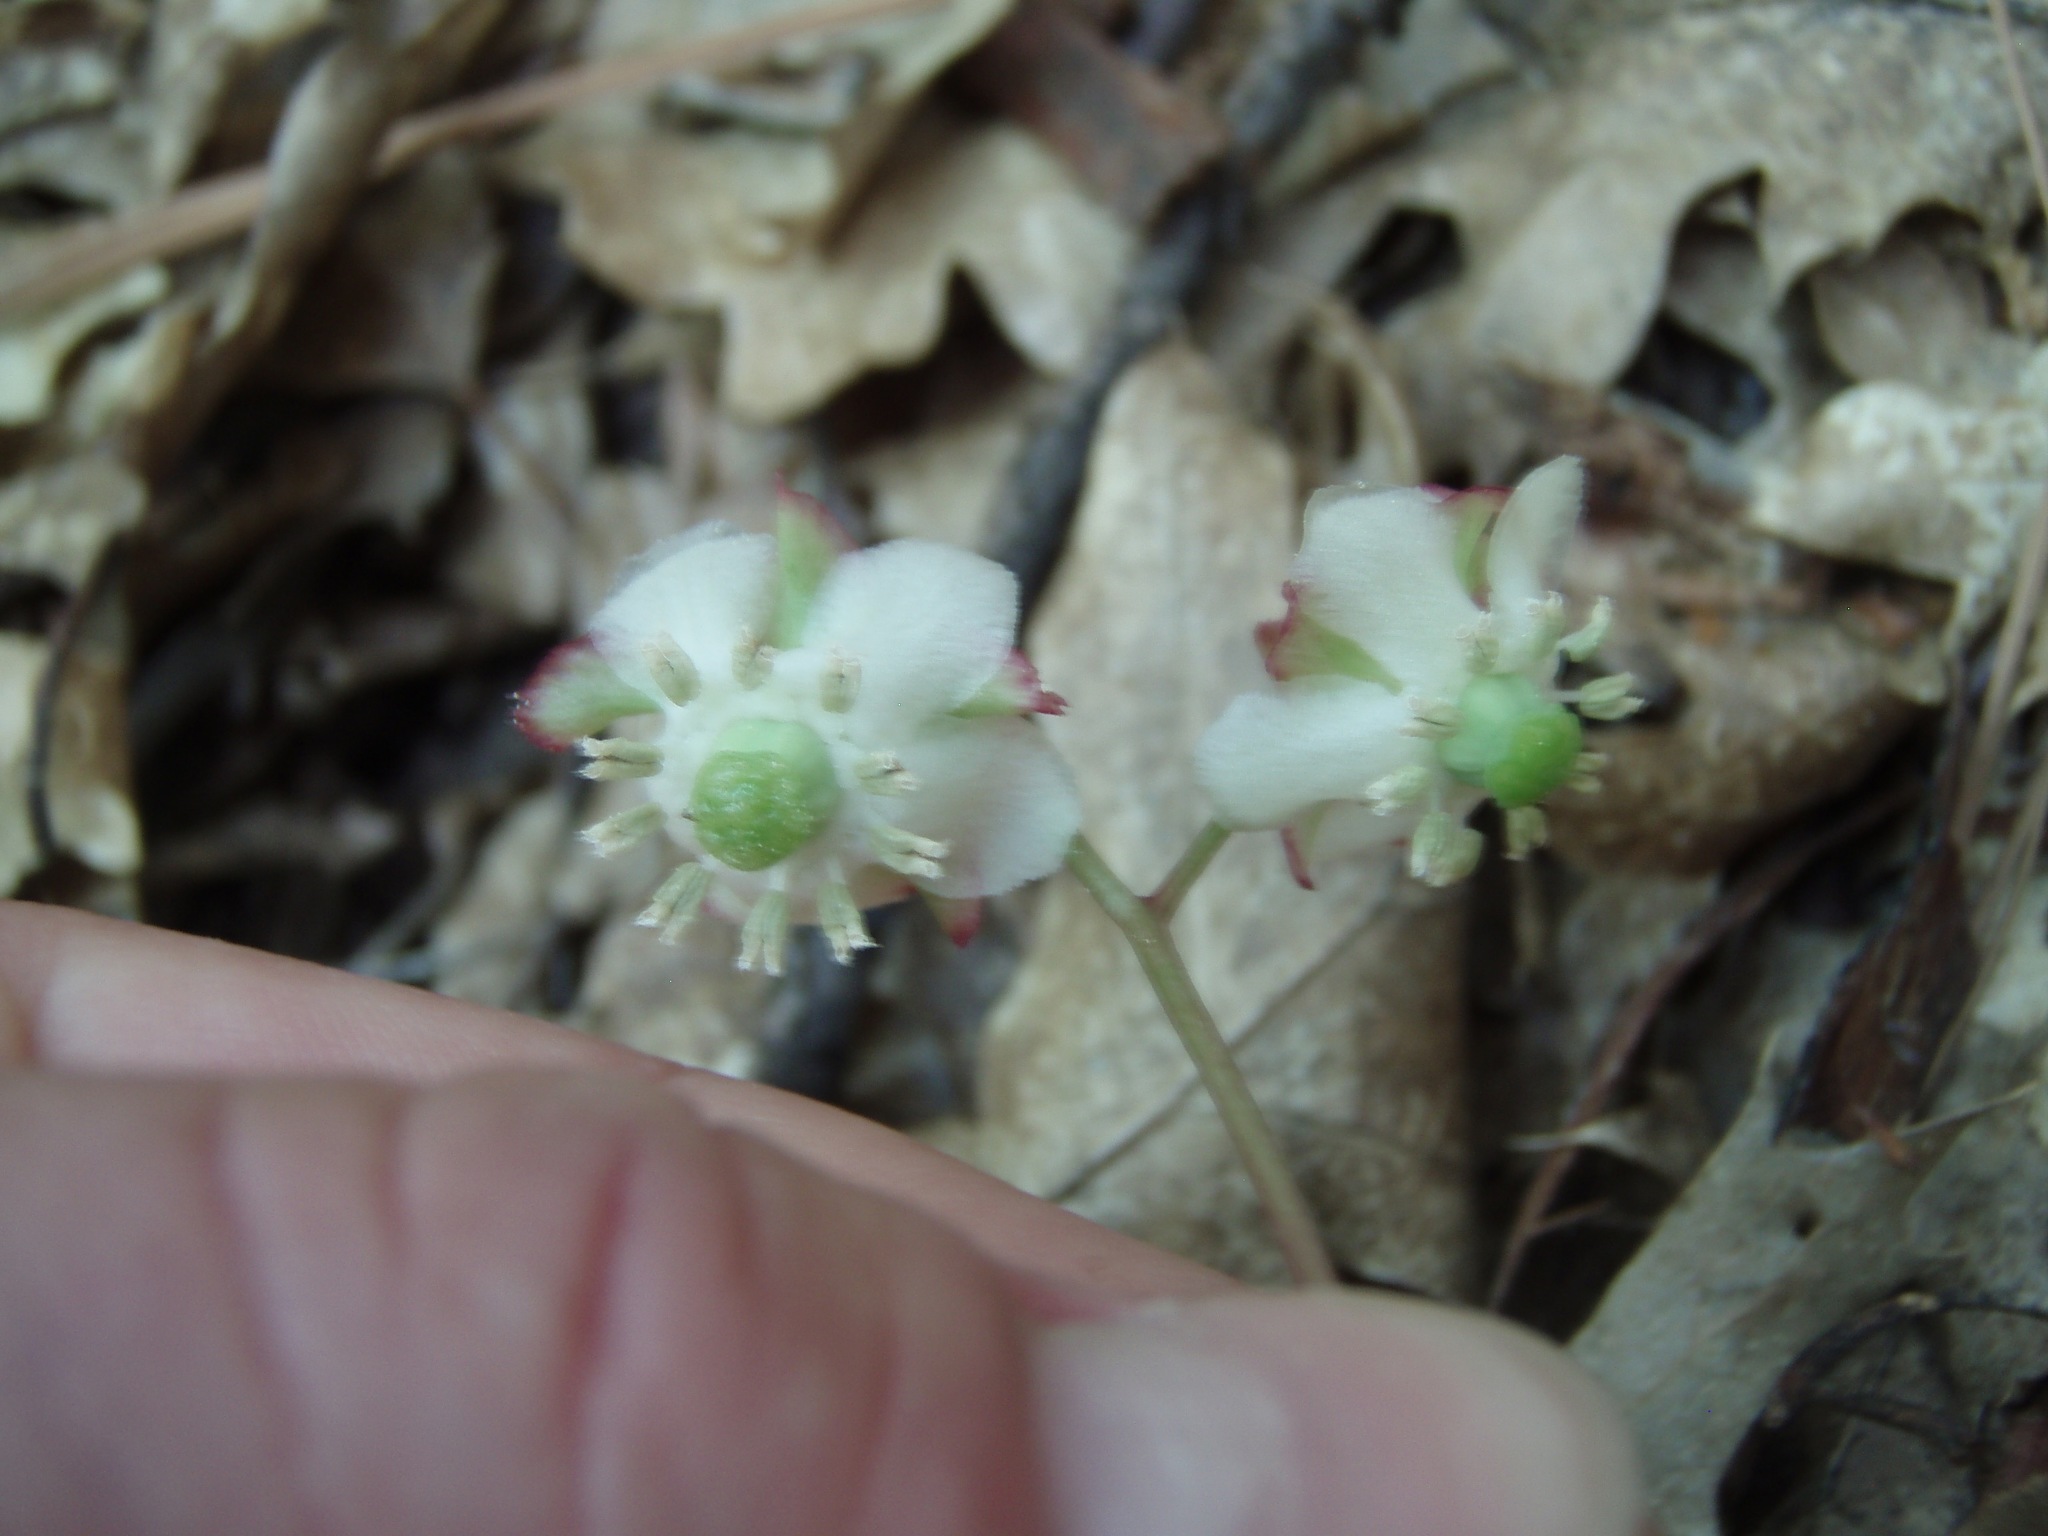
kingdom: Plantae
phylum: Tracheophyta
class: Magnoliopsida
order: Ericales
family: Ericaceae
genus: Chimaphila
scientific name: Chimaphila menziesii
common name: Menzies' pipsissewa
